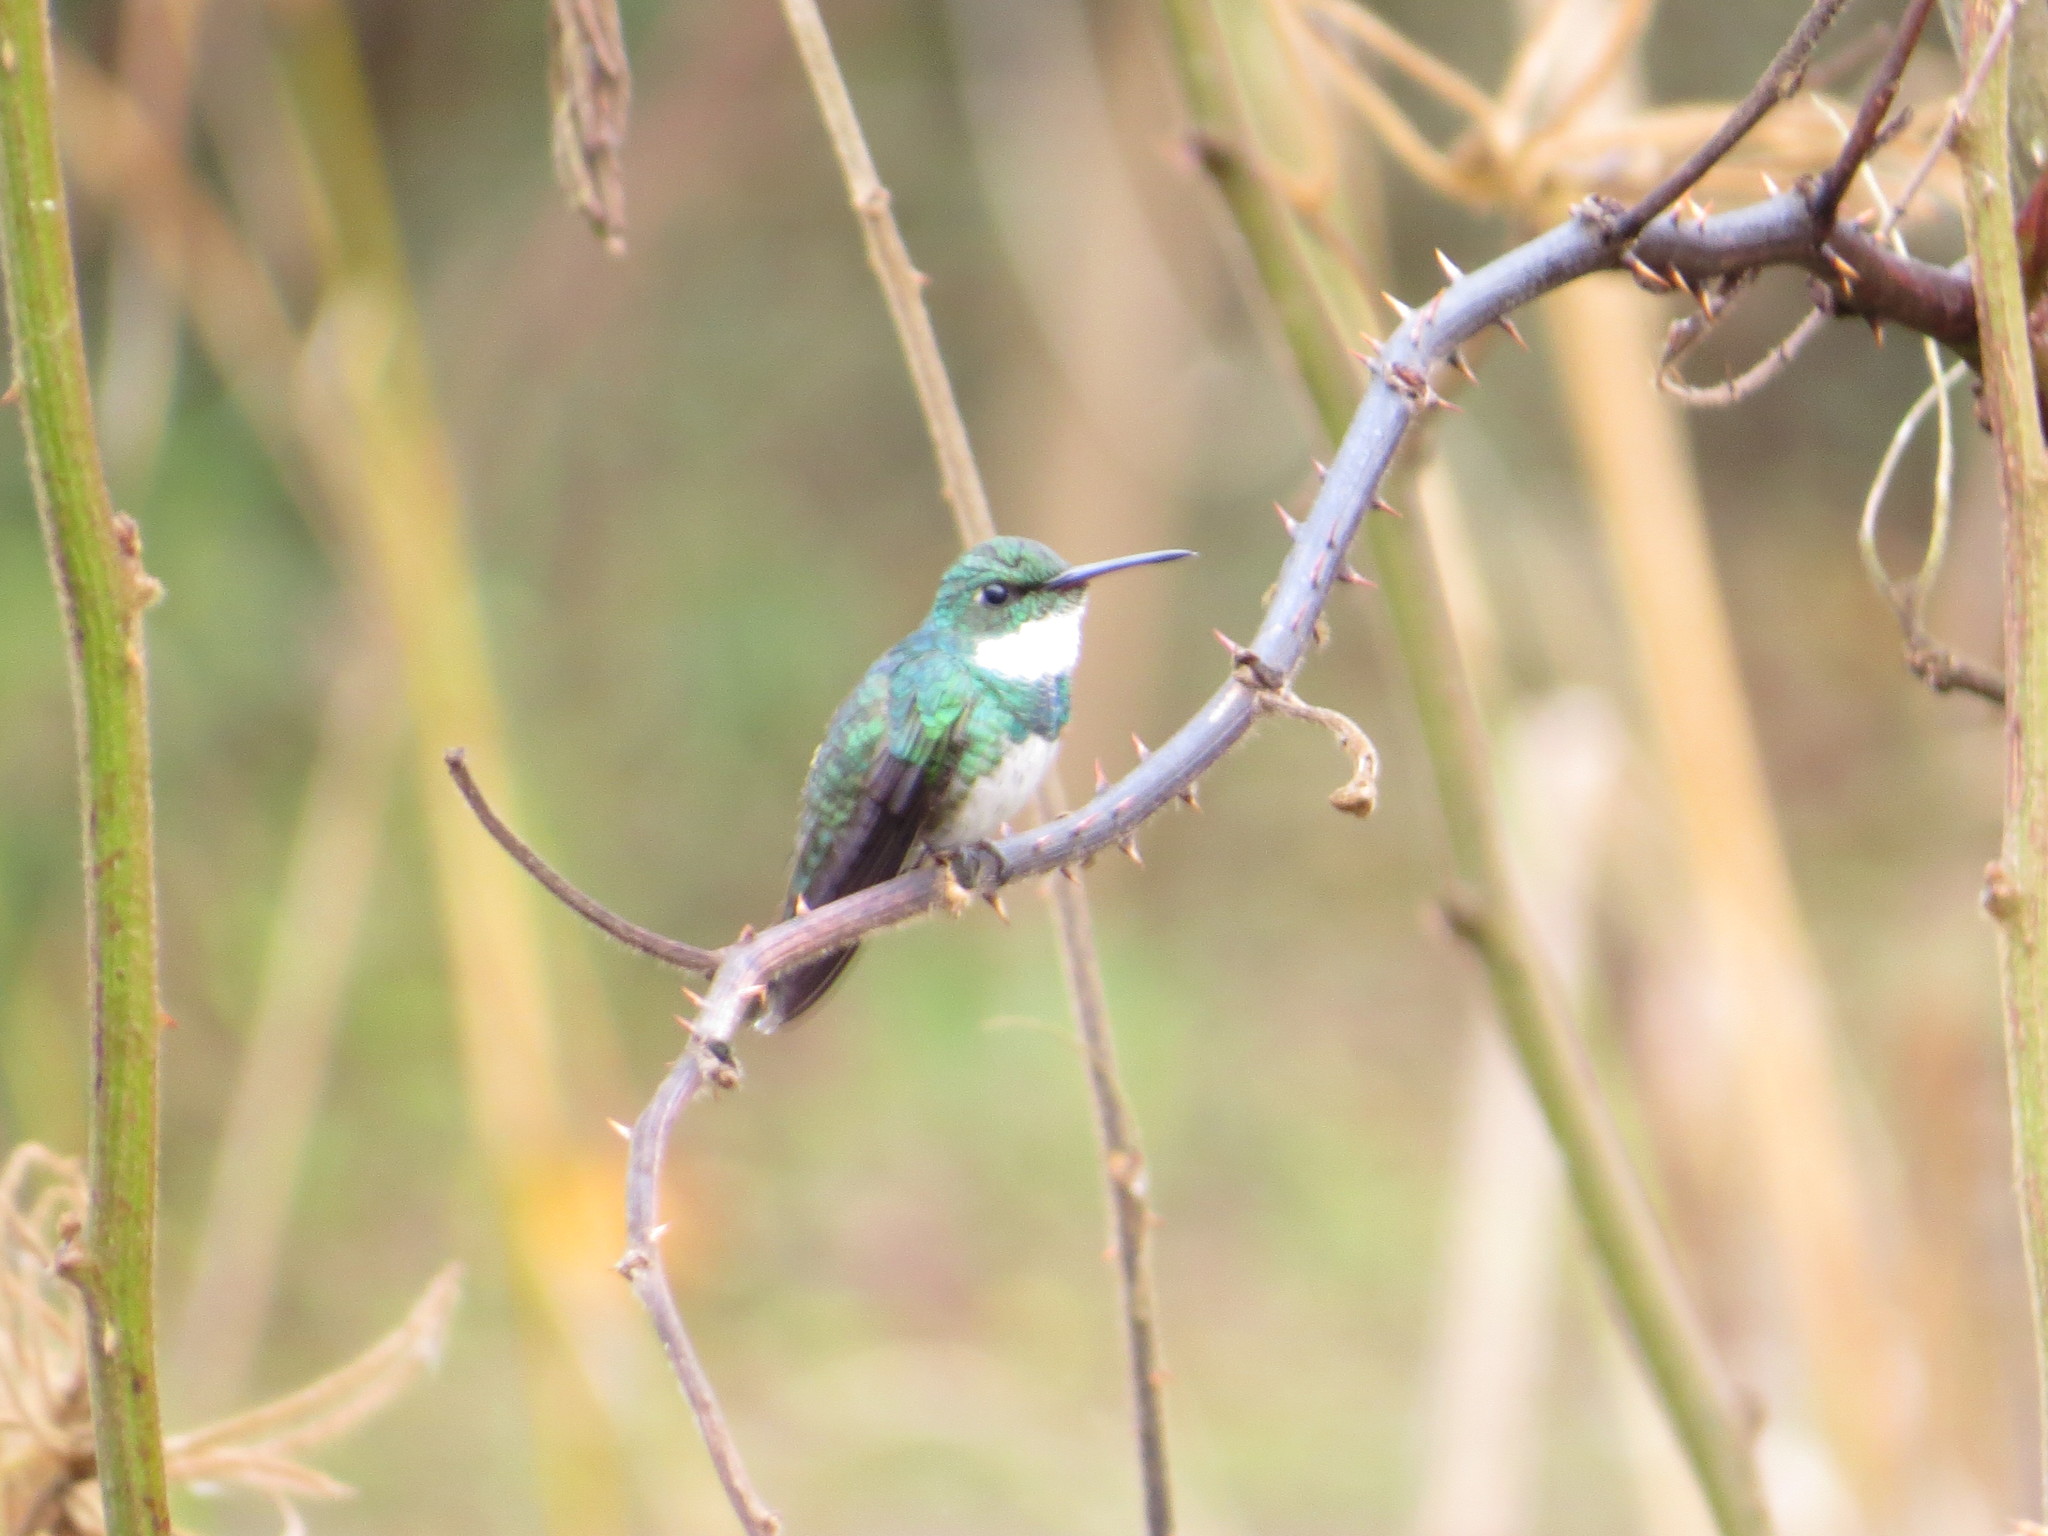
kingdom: Animalia
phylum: Chordata
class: Aves
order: Apodiformes
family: Trochilidae
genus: Leucochloris
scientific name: Leucochloris albicollis
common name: White-throated hummingbird
